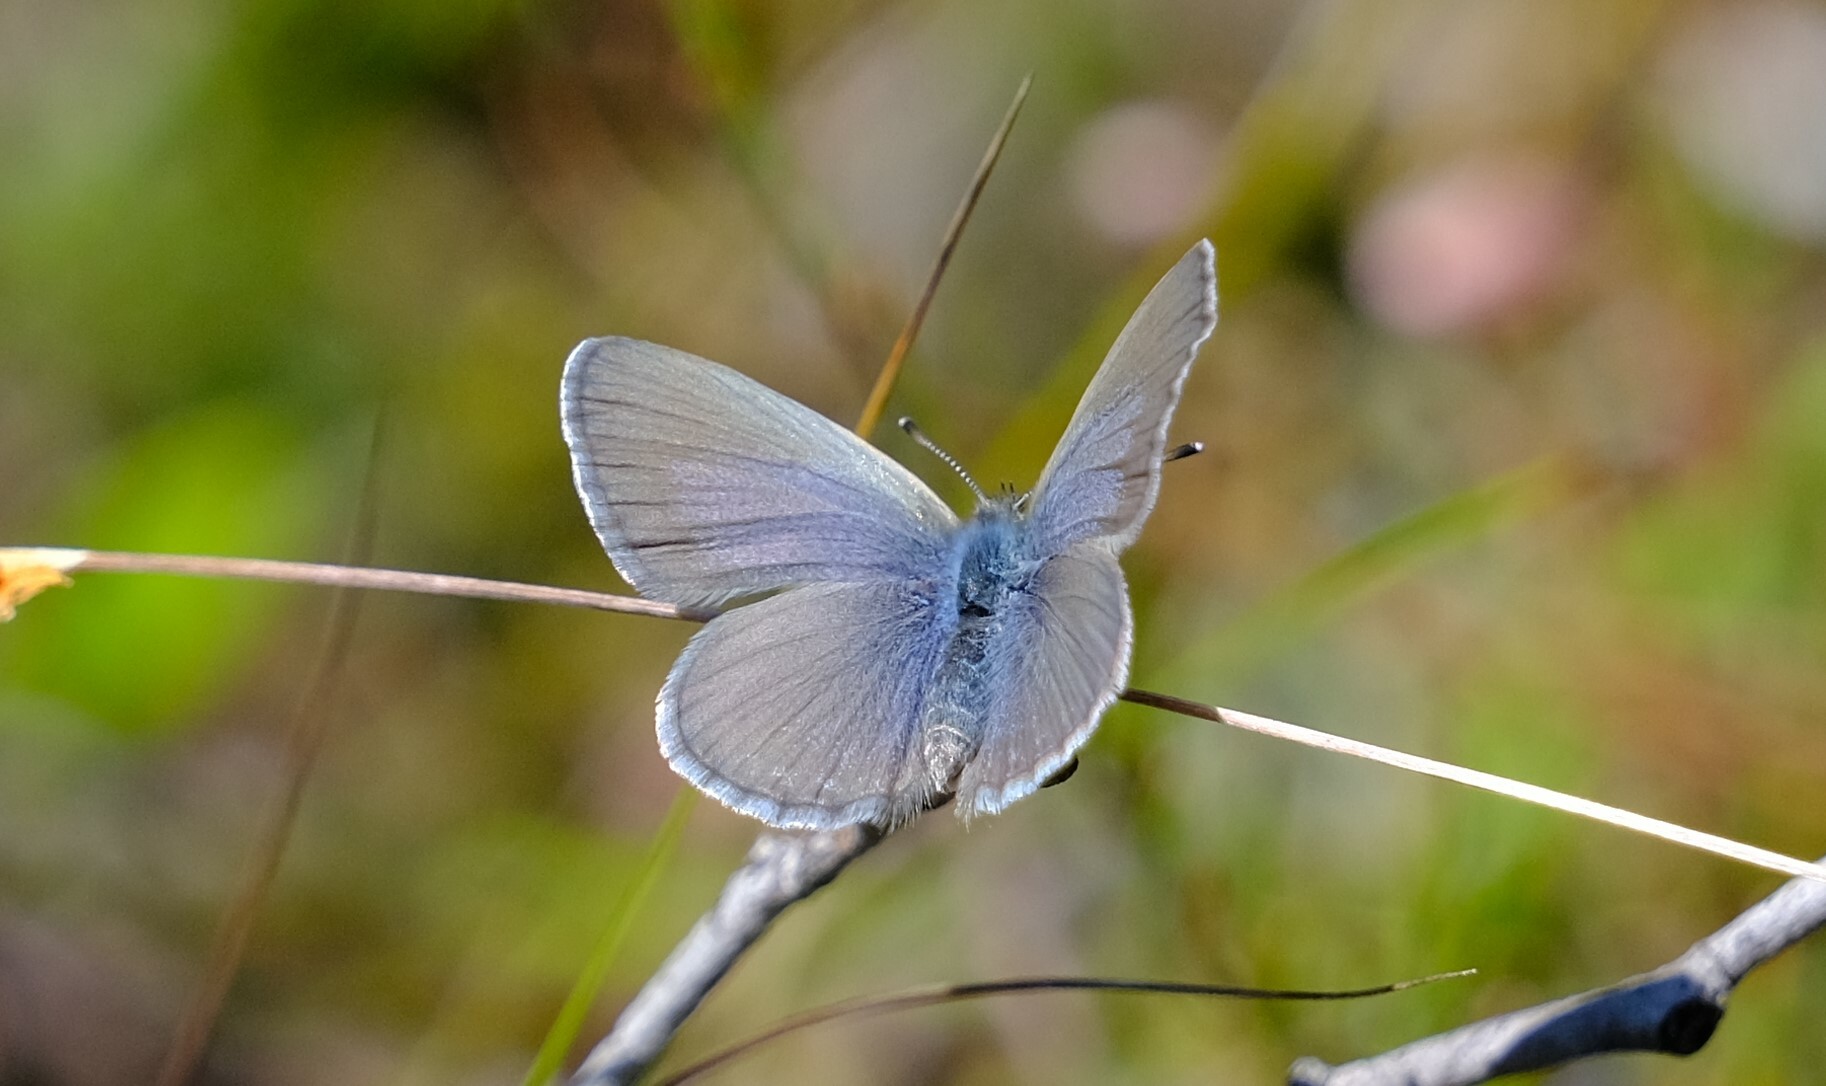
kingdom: Animalia
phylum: Arthropoda
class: Insecta
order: Lepidoptera
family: Lycaenidae
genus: Zizina
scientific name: Zizina labradus
